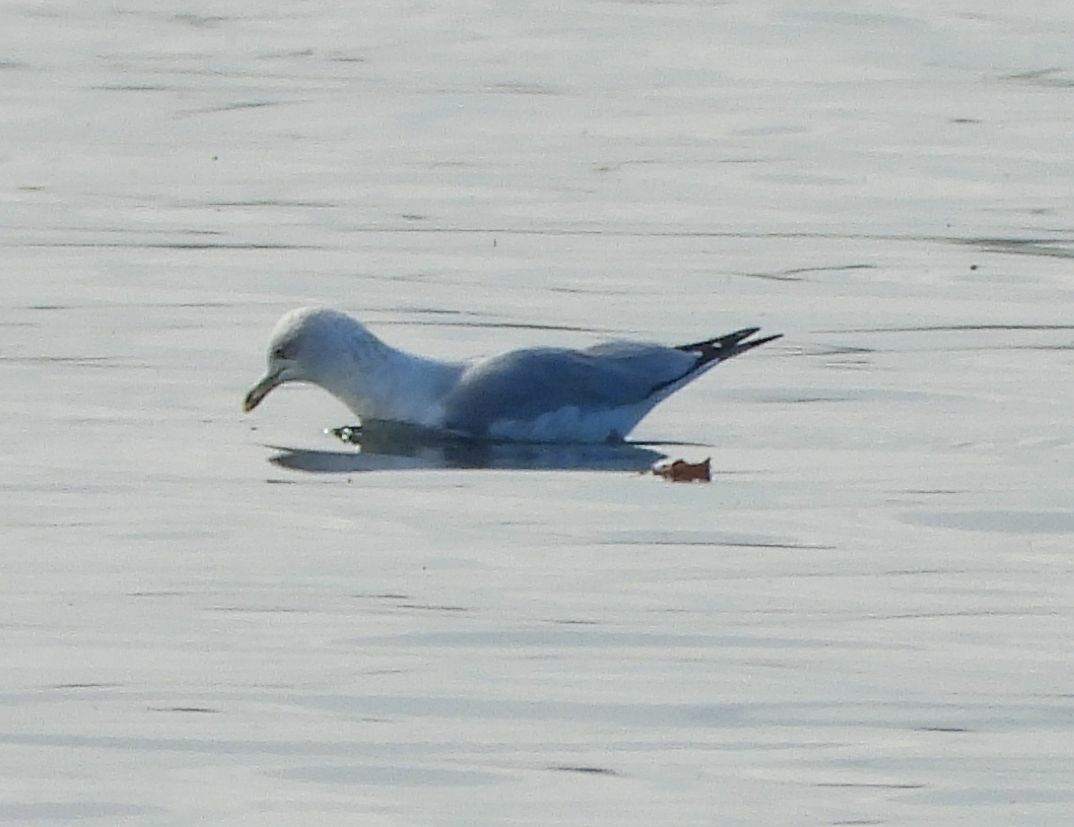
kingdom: Animalia
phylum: Chordata
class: Aves
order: Charadriiformes
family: Laridae
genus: Larus
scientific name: Larus delawarensis
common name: Ring-billed gull
